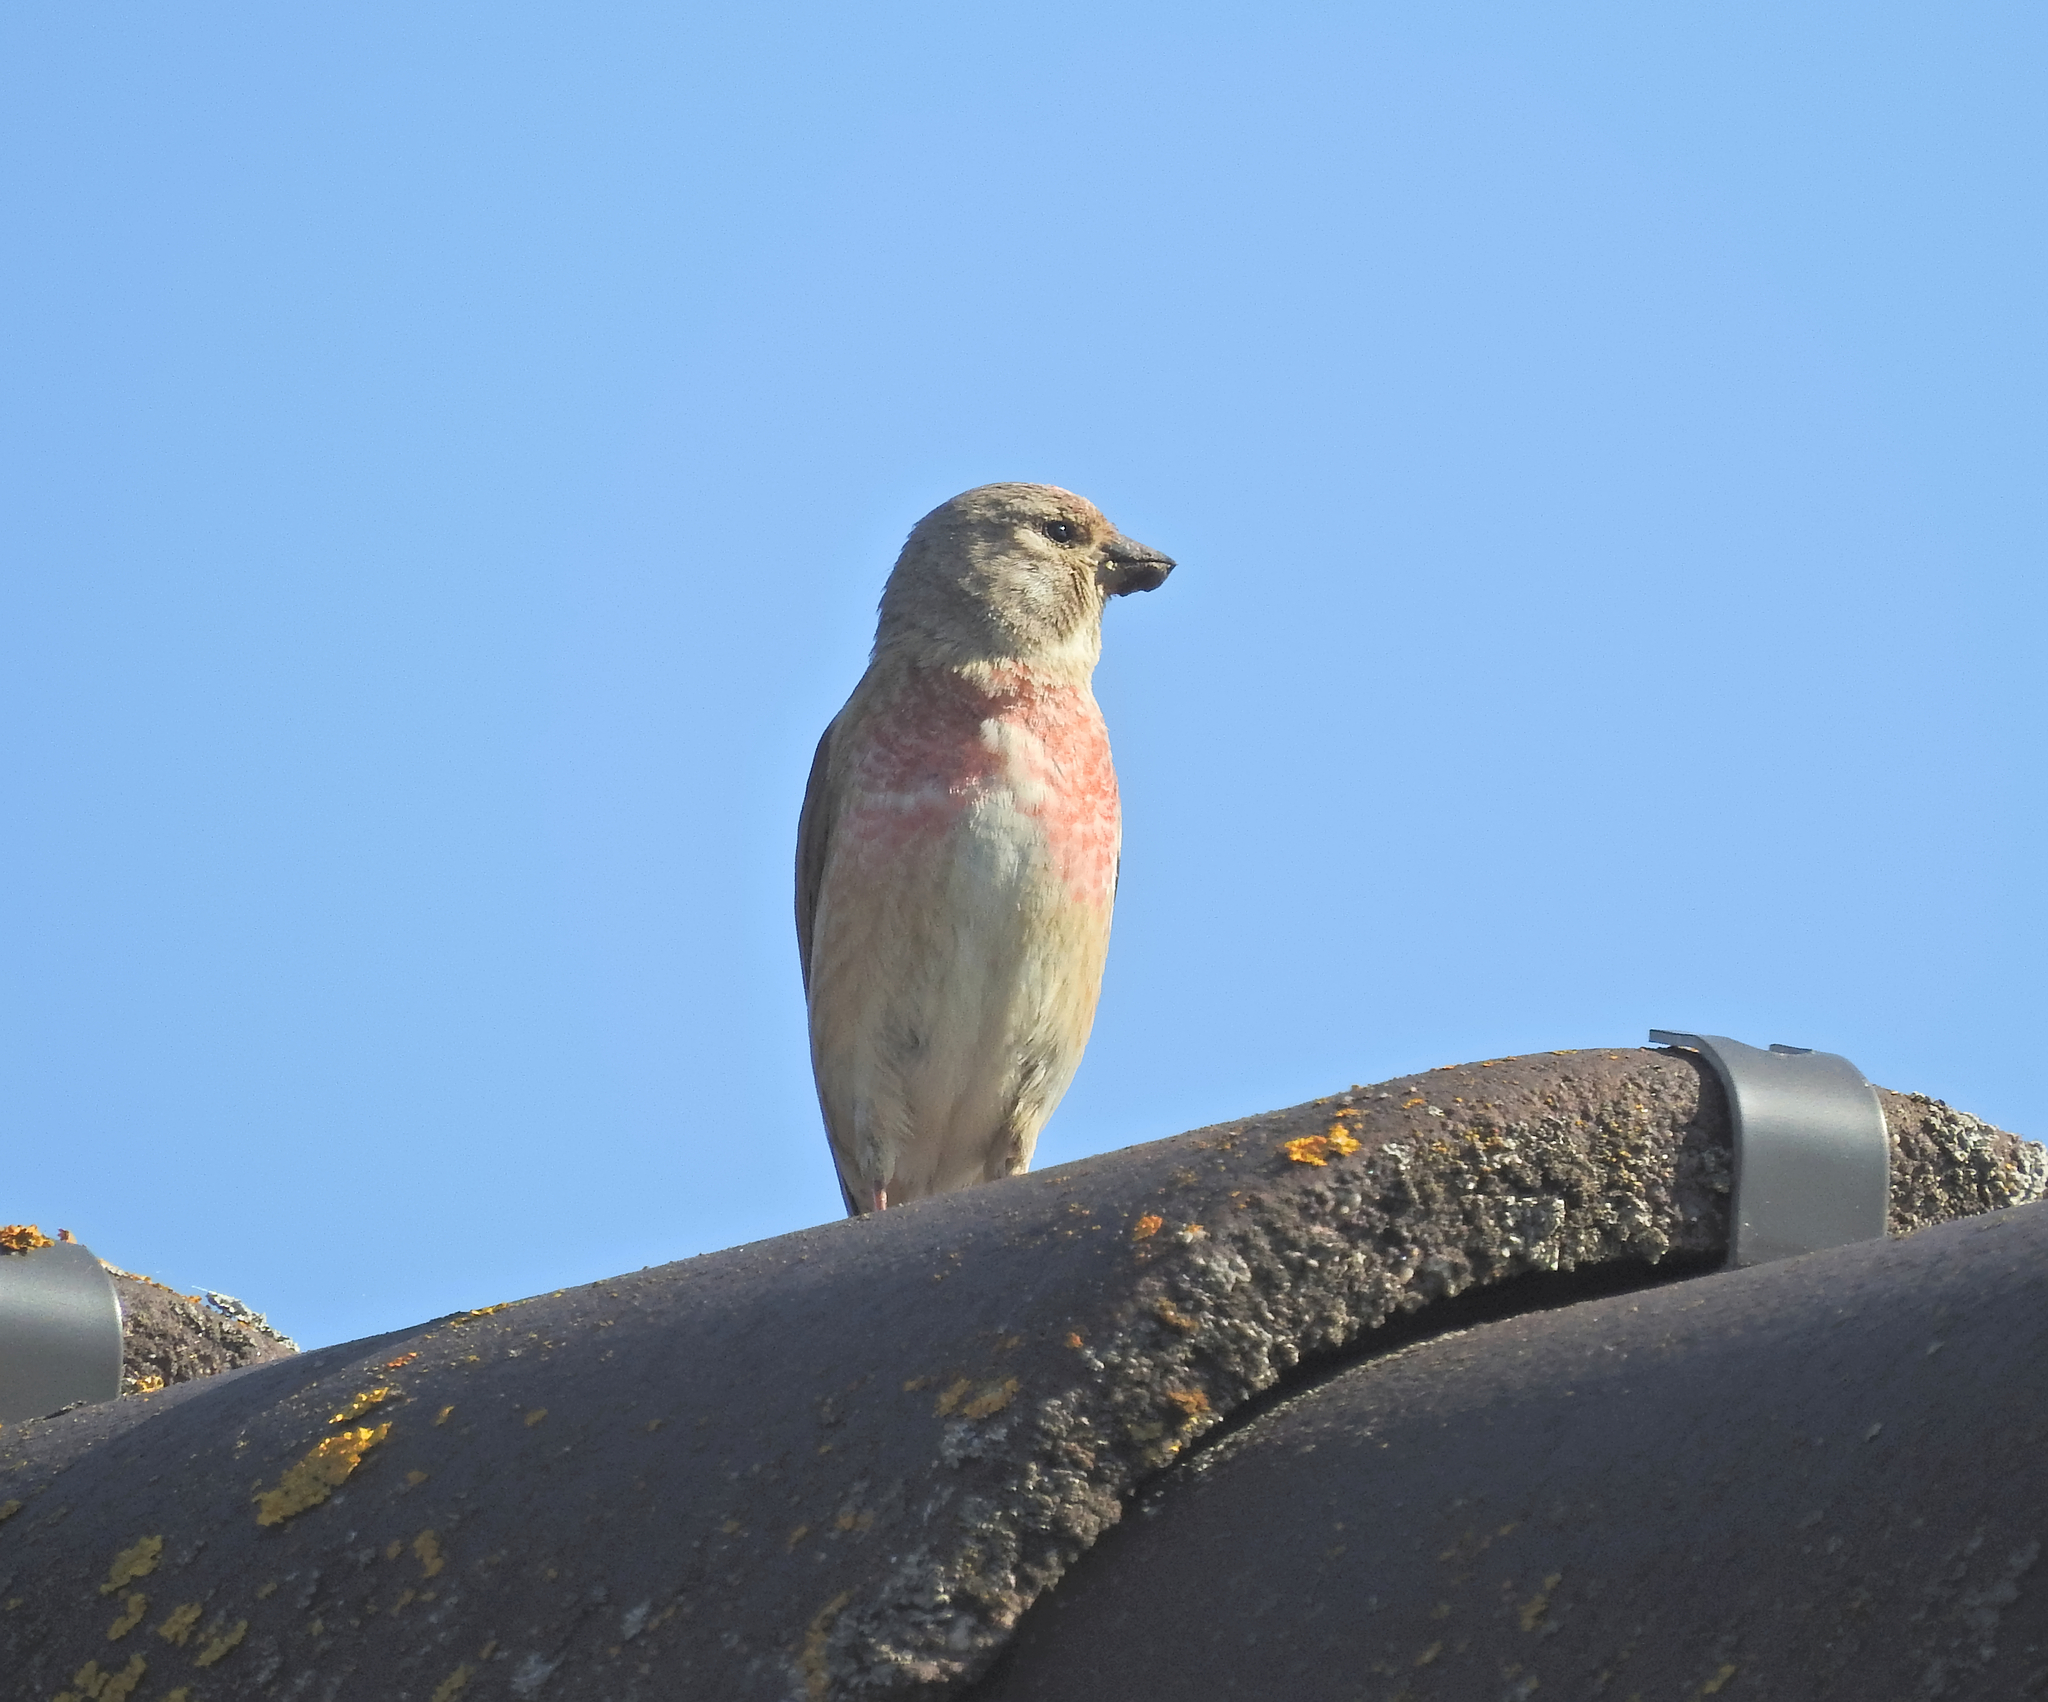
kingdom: Animalia
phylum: Chordata
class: Aves
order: Passeriformes
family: Fringillidae
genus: Linaria
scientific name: Linaria cannabina
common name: Common linnet
